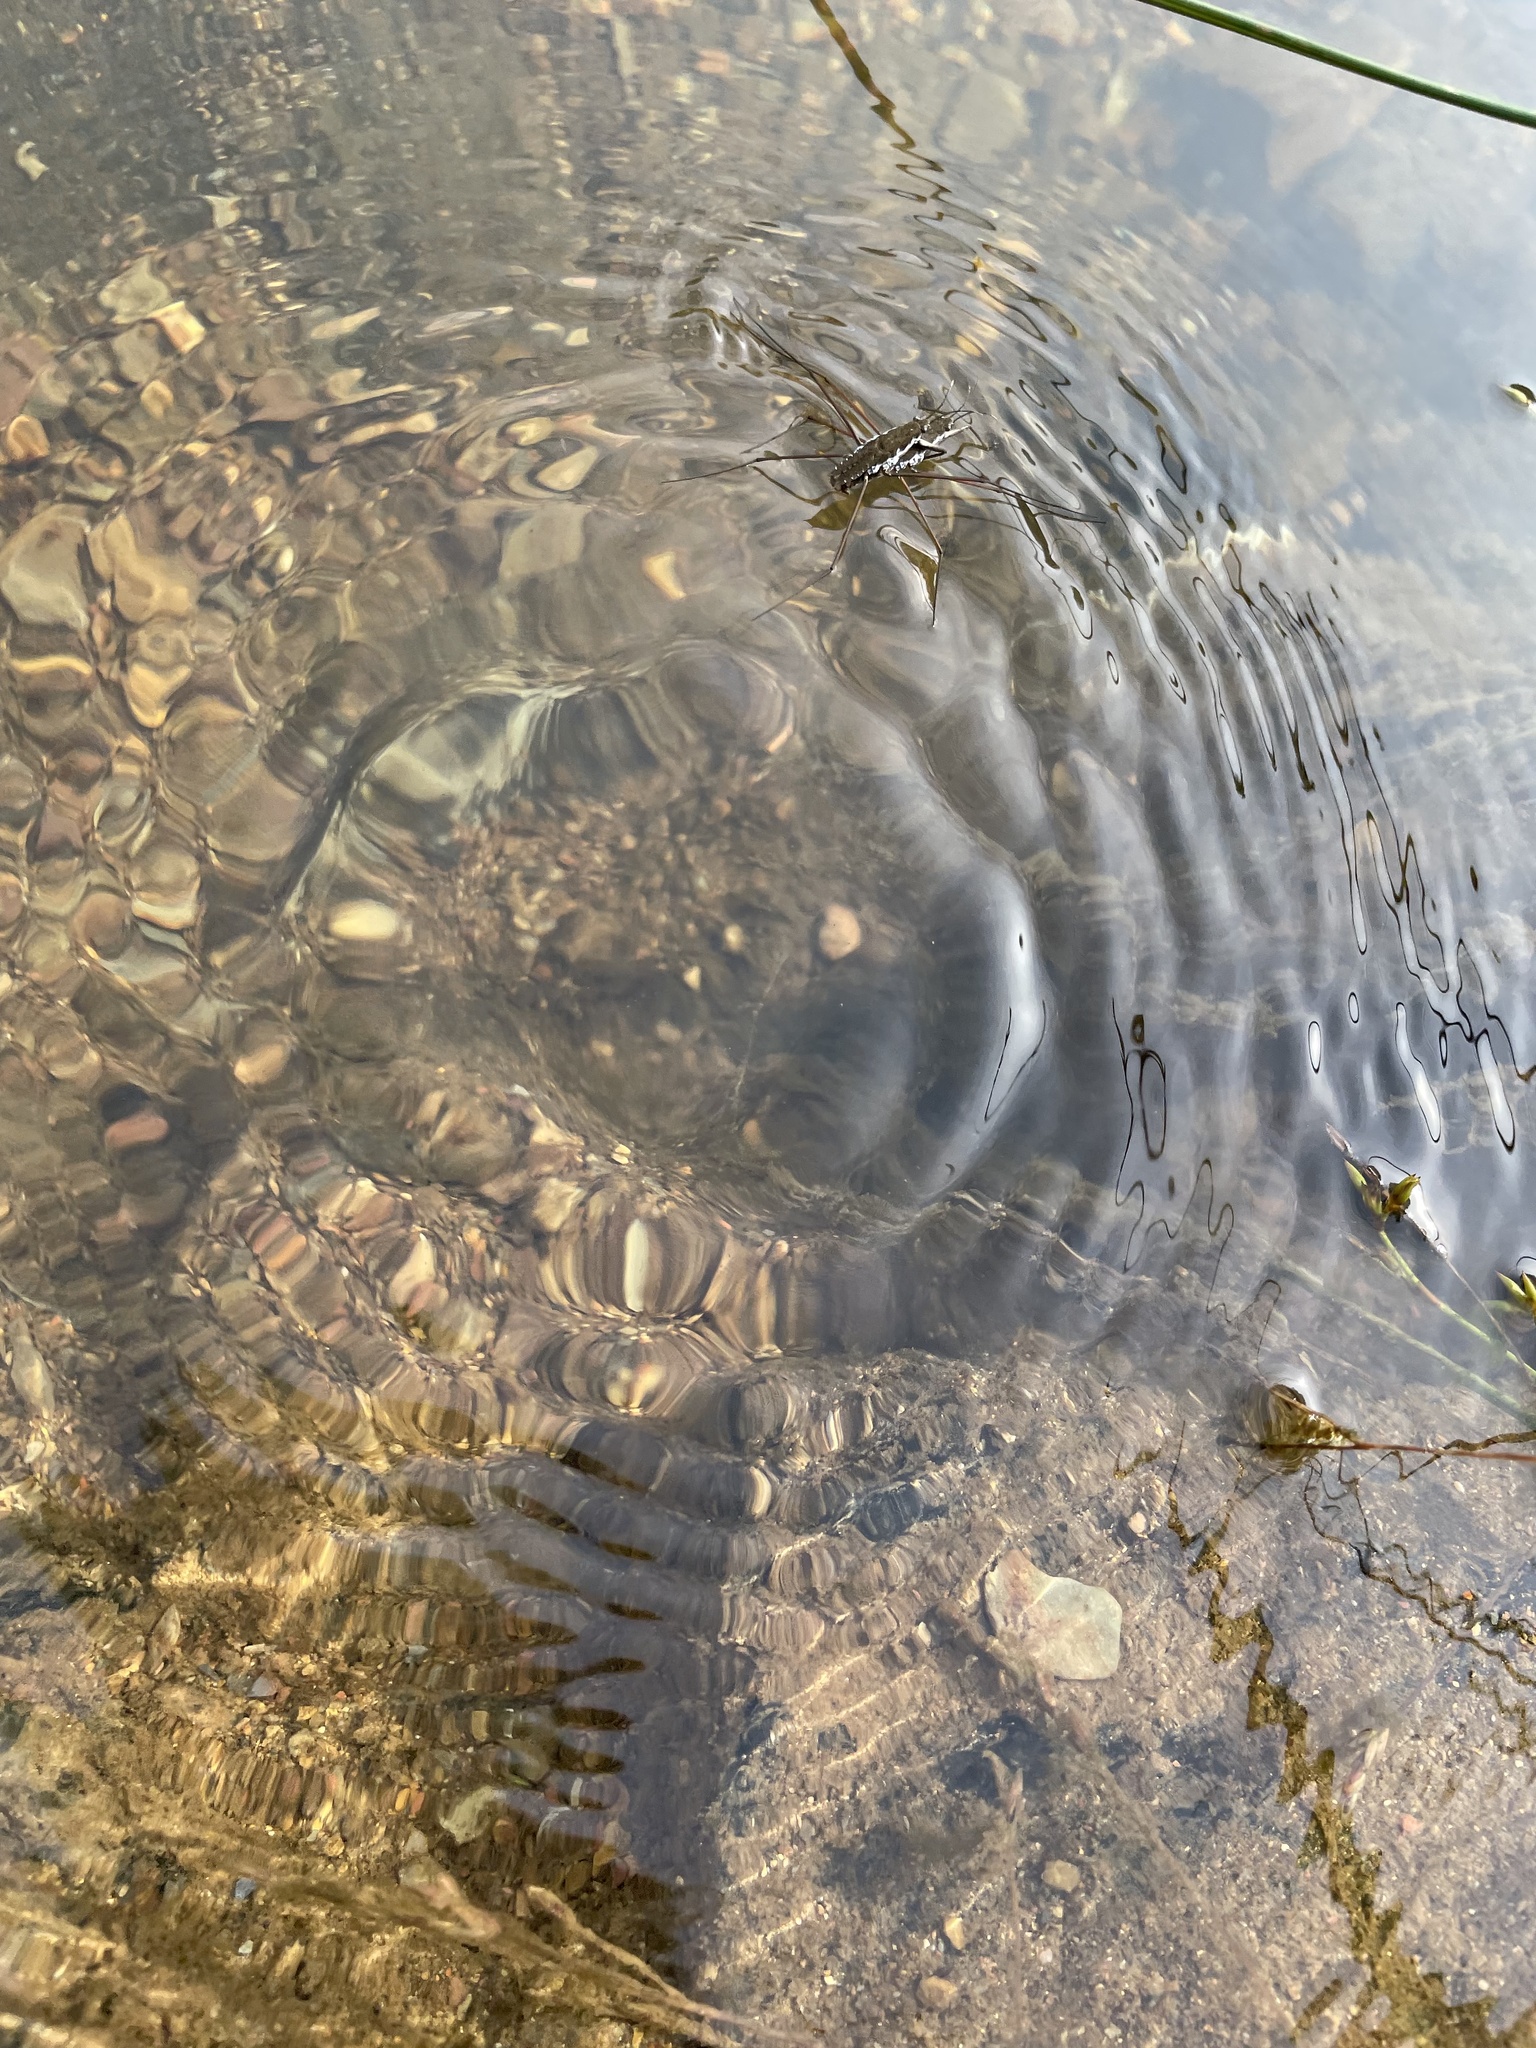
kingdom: Animalia
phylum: Arthropoda
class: Insecta
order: Hemiptera
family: Gerridae
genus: Aquarius
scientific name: Aquarius remigis
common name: Common water strider
